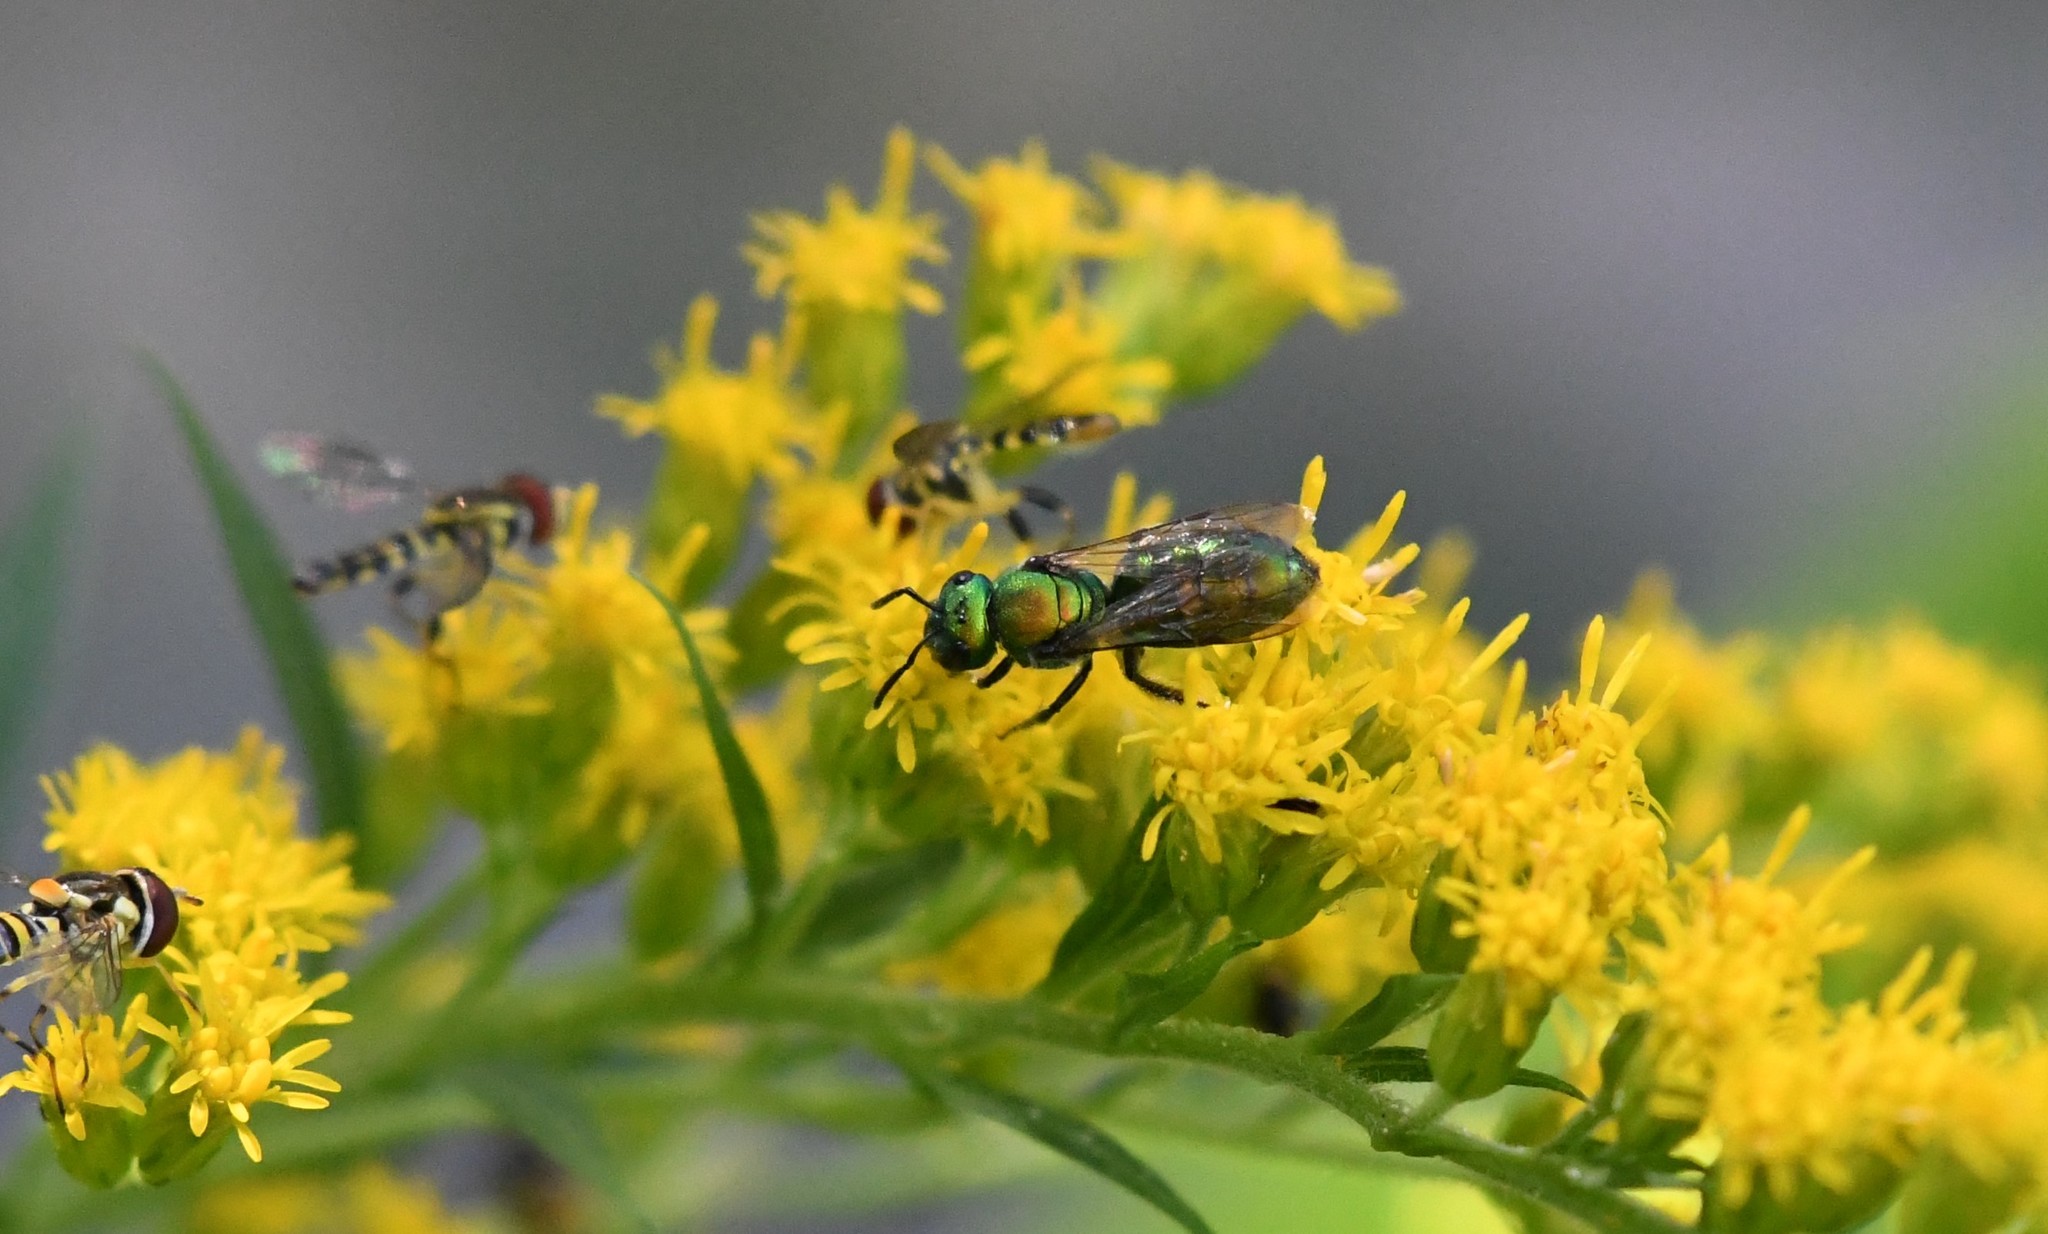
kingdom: Animalia
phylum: Arthropoda
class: Insecta
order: Hymenoptera
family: Halictidae
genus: Augochlora
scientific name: Augochlora pura
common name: Pure green sweat bee
